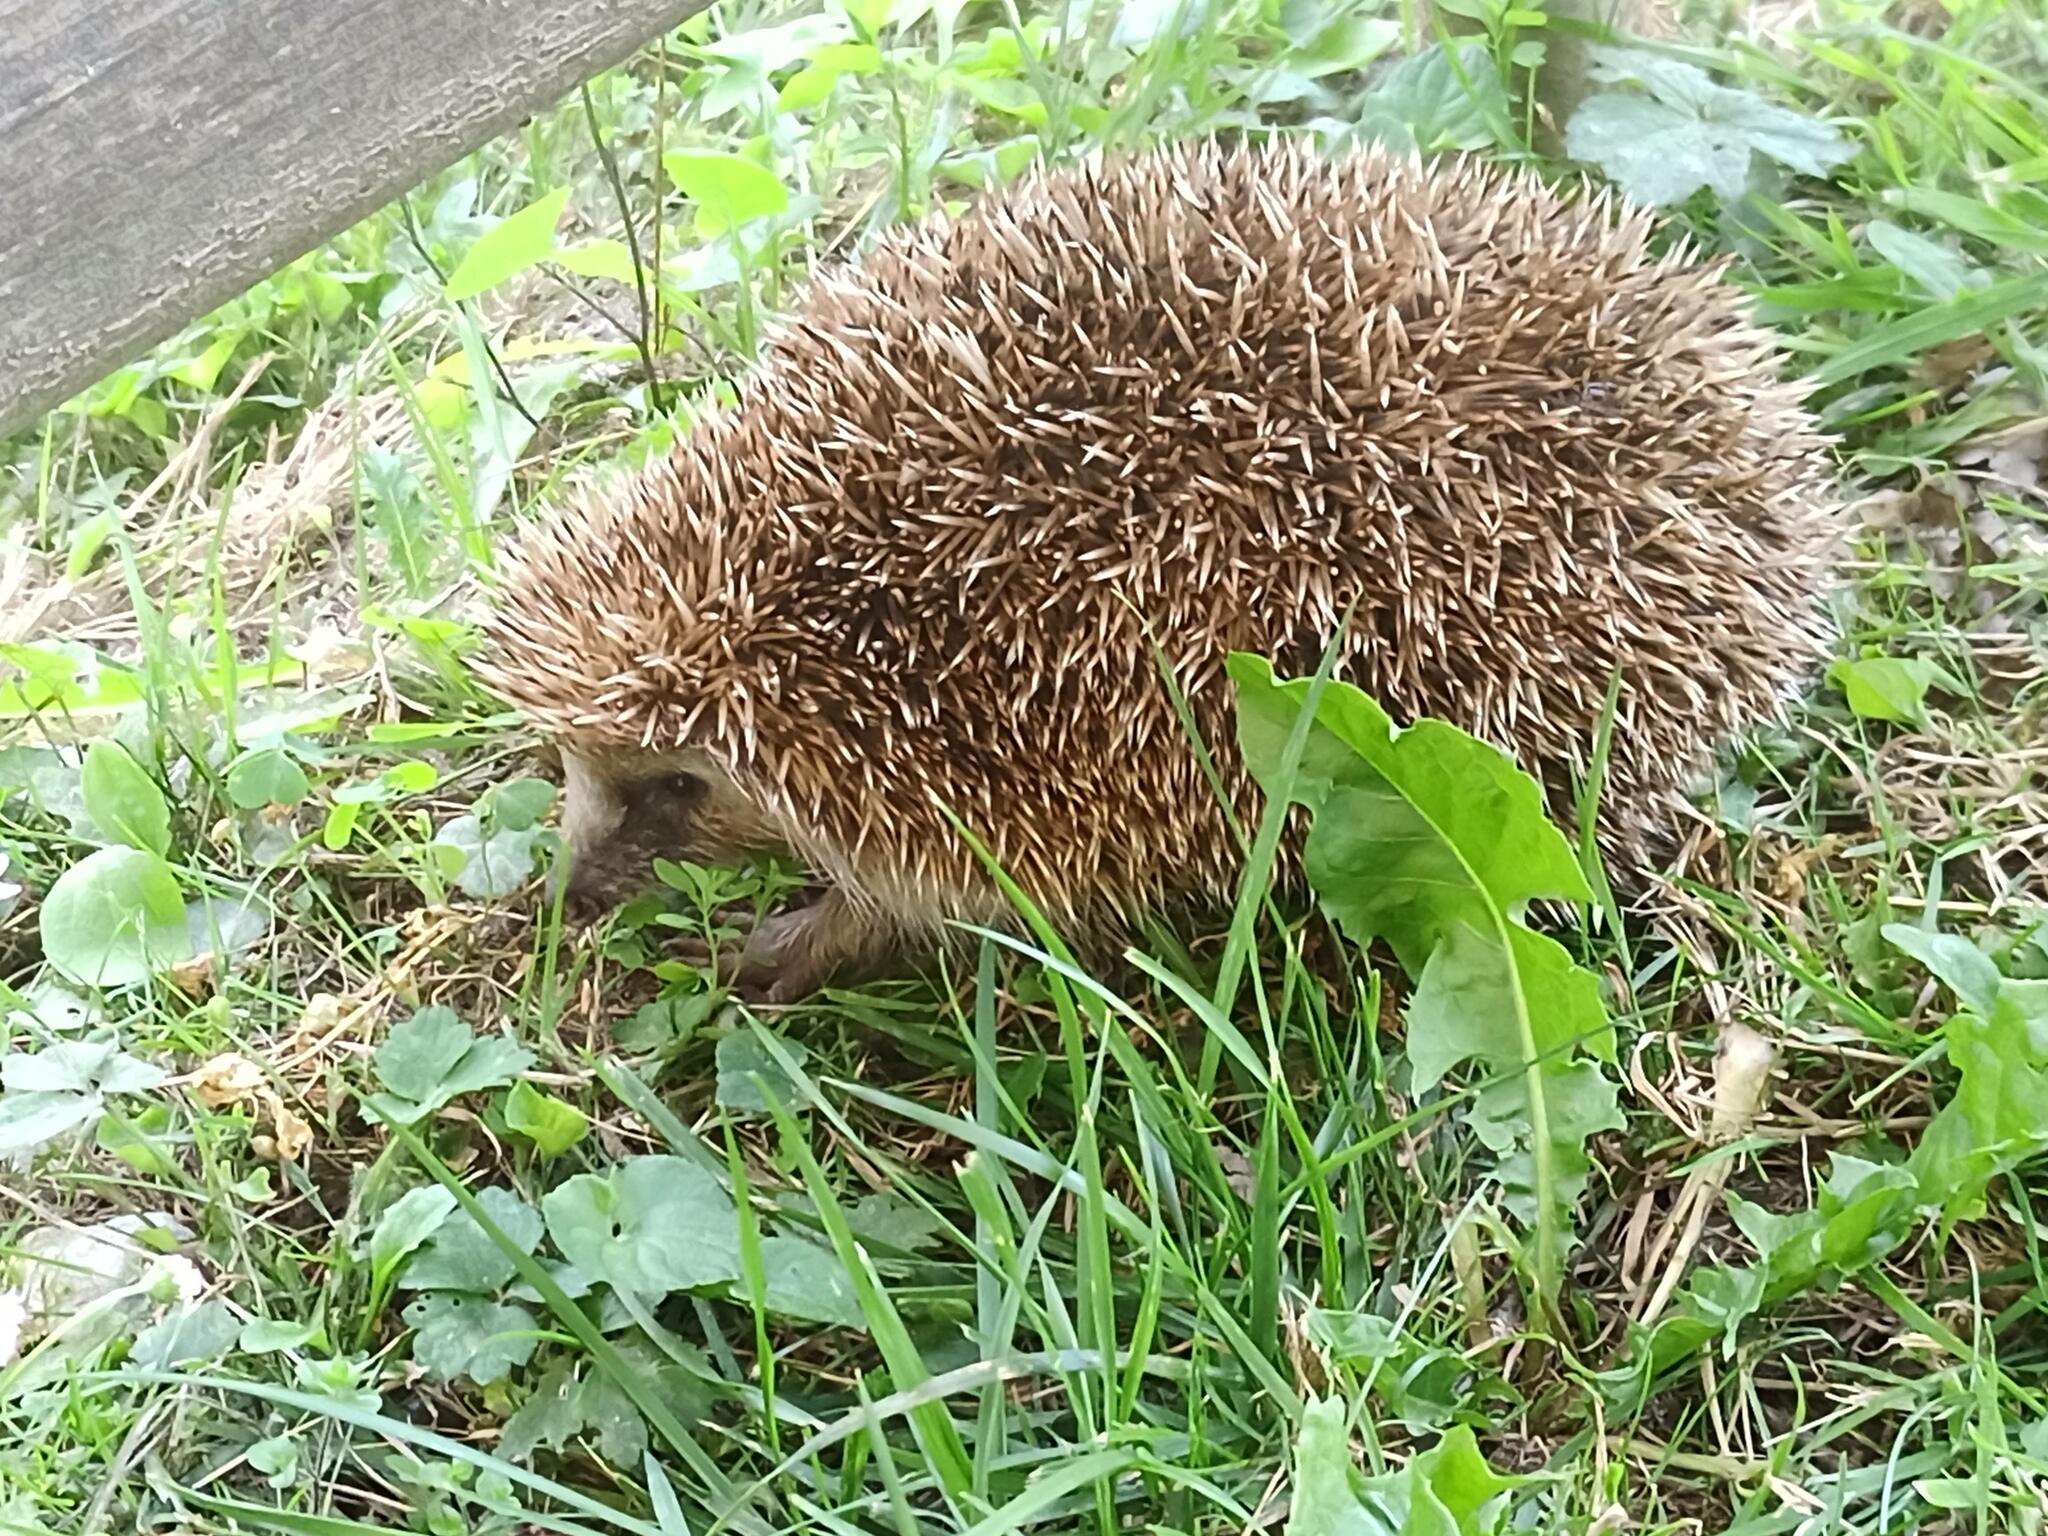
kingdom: Animalia
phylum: Chordata
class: Mammalia
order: Erinaceomorpha
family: Erinaceidae
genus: Erinaceus
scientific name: Erinaceus europaeus
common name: West european hedgehog
